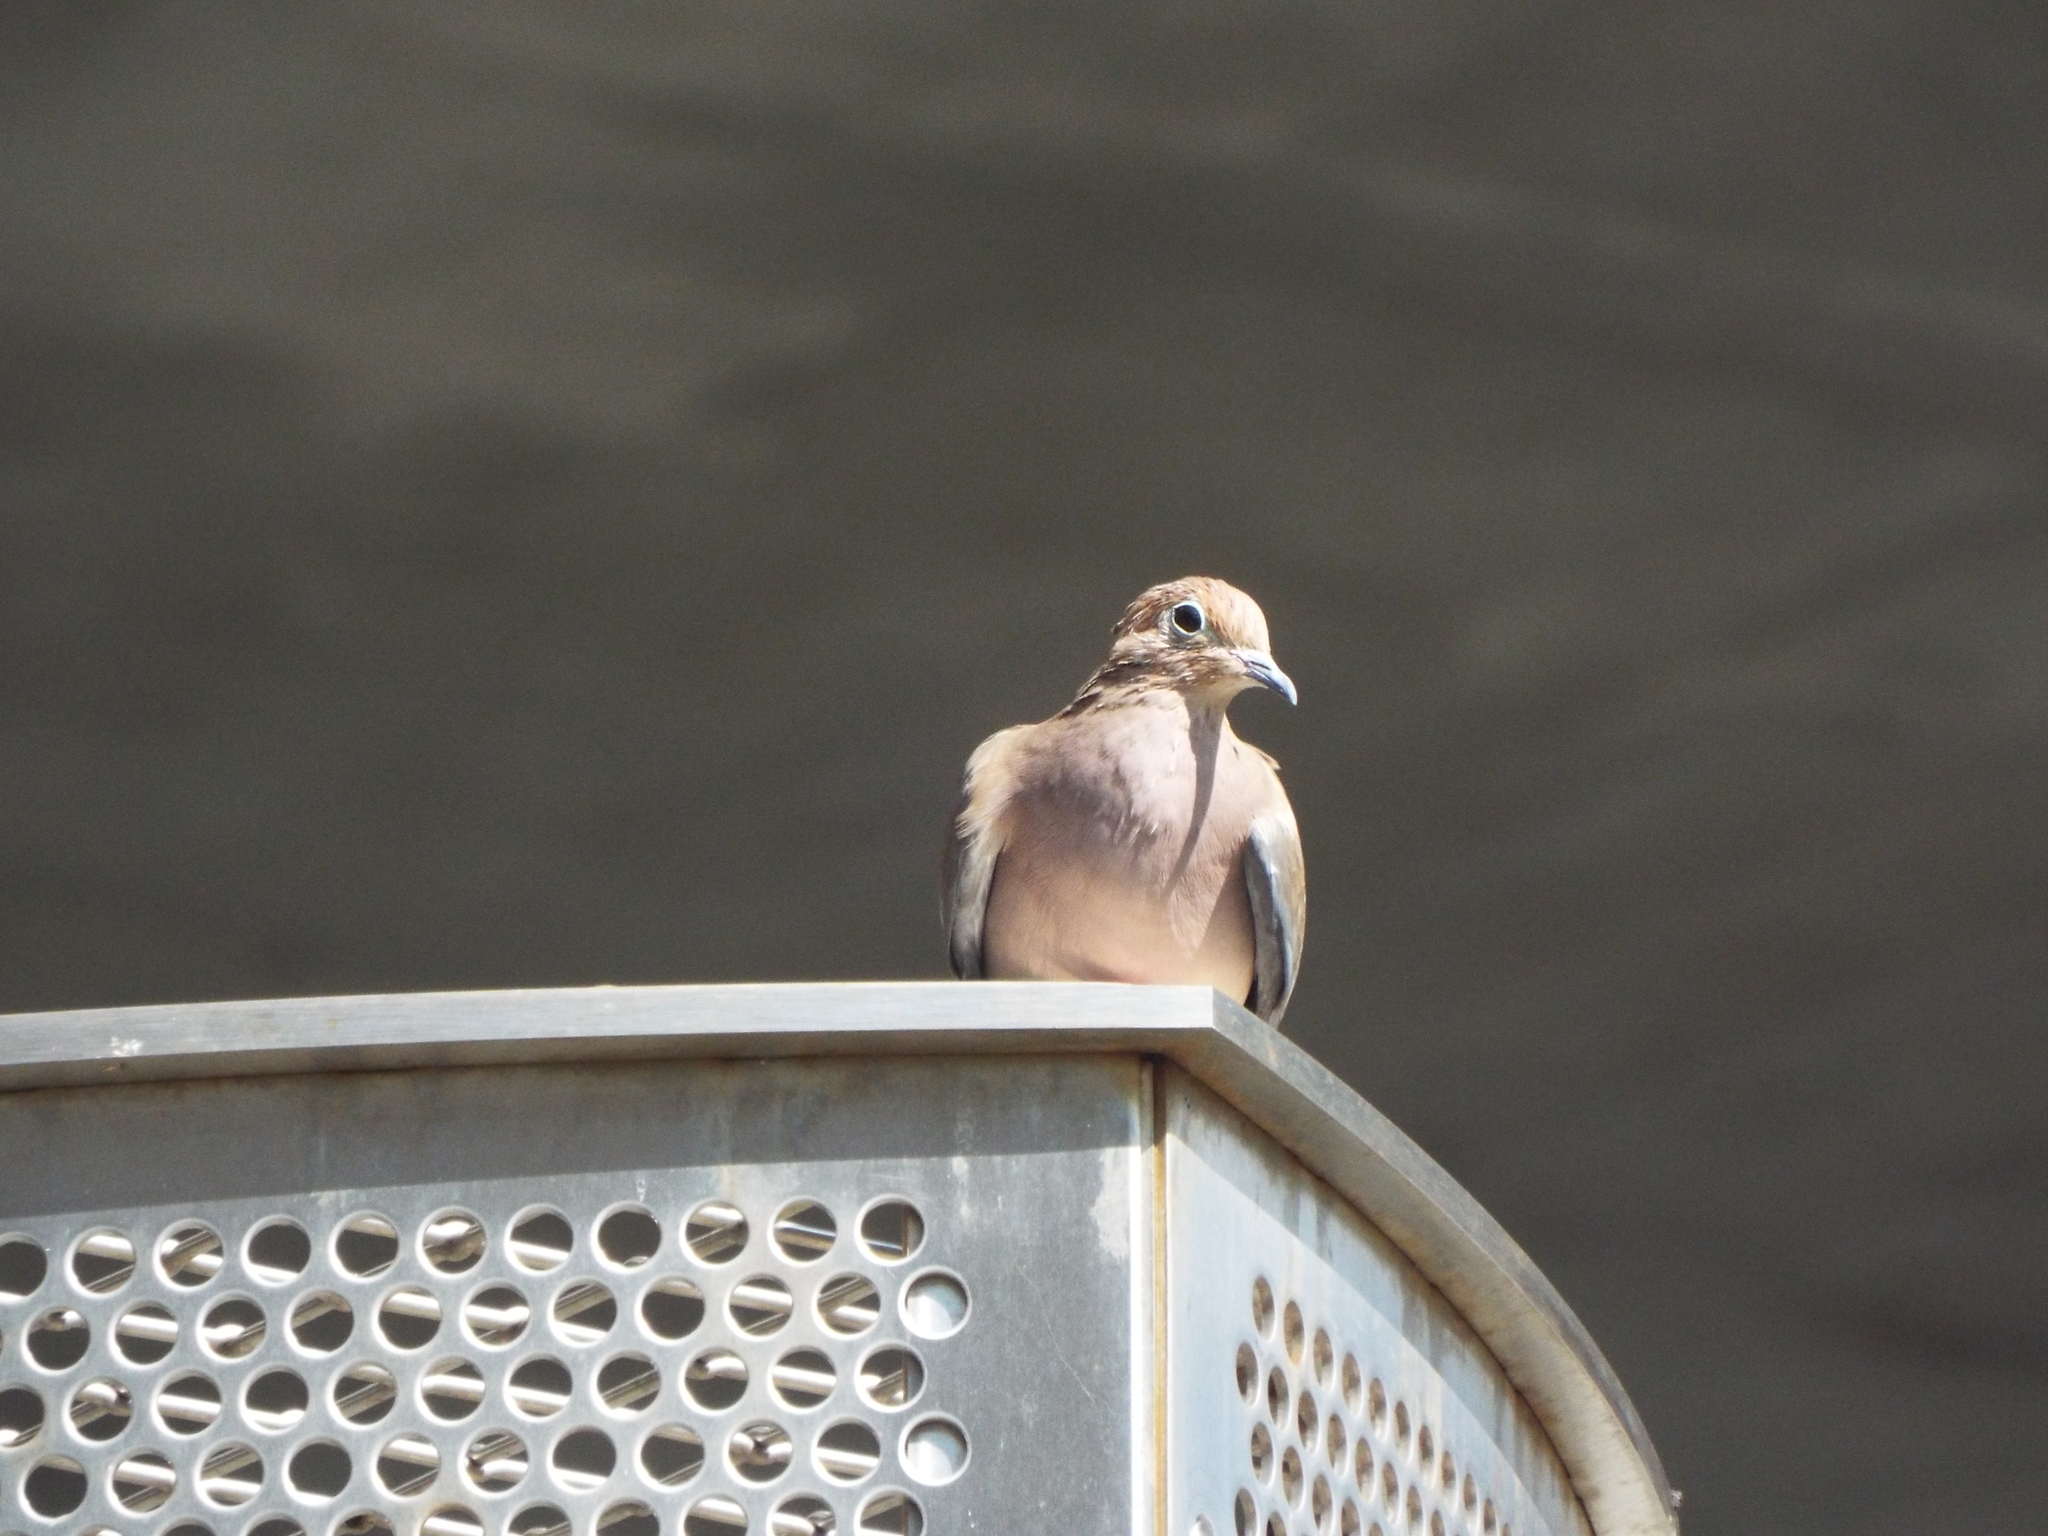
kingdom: Animalia
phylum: Chordata
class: Aves
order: Columbiformes
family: Columbidae
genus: Zenaida
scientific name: Zenaida macroura
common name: Mourning dove
